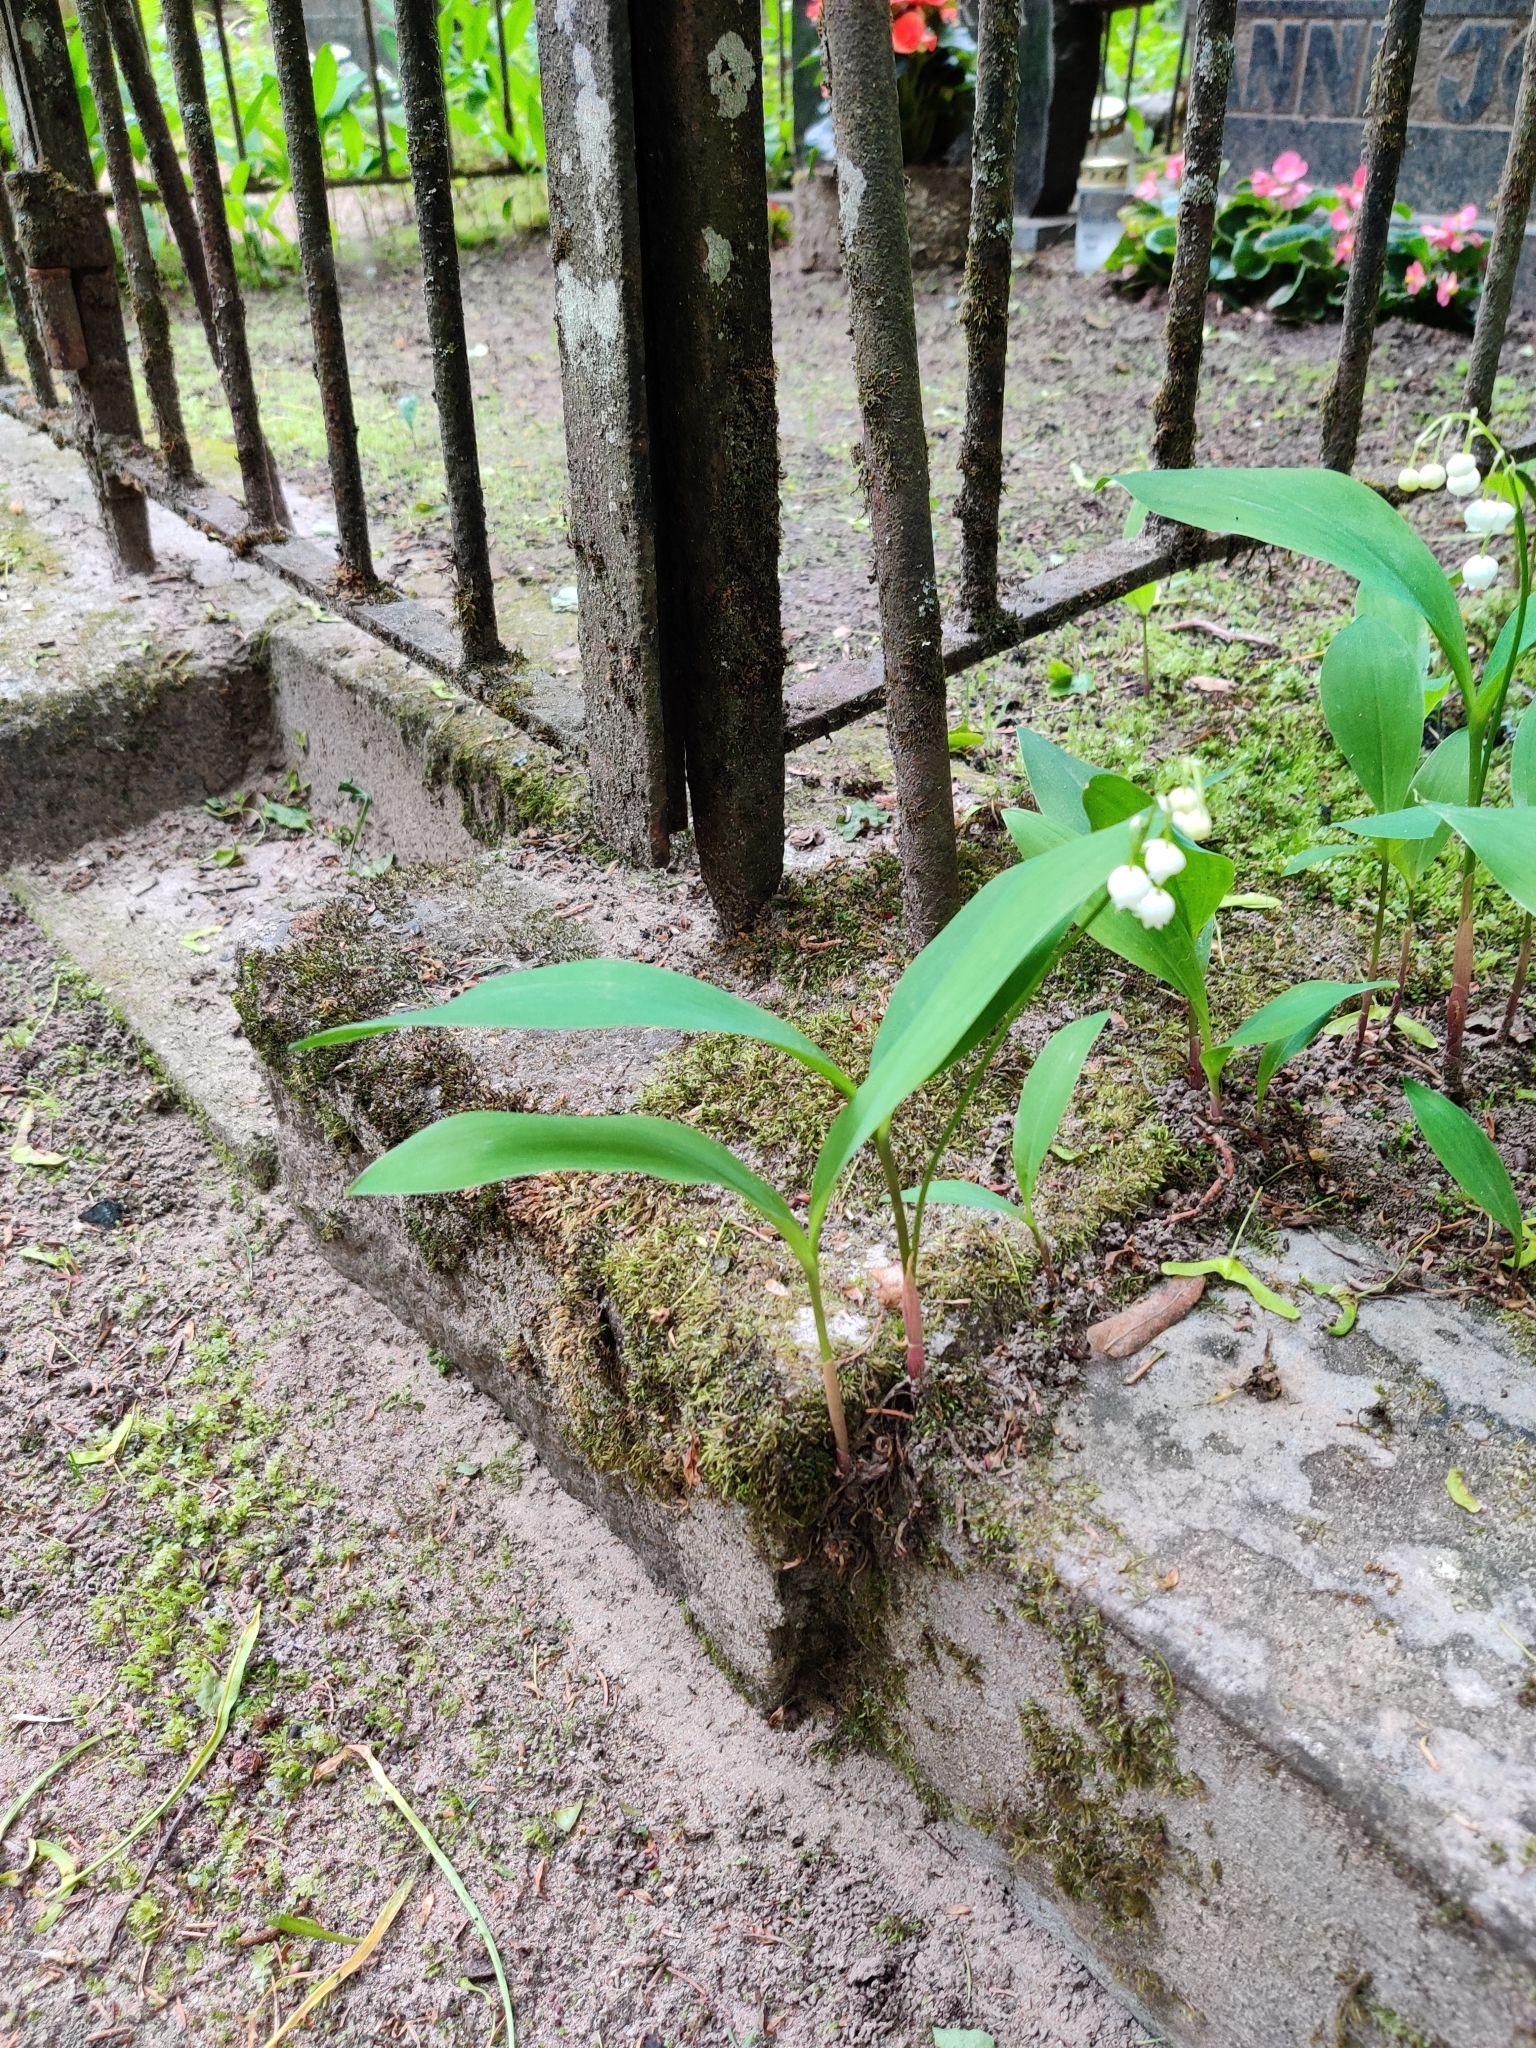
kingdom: Plantae
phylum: Tracheophyta
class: Liliopsida
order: Asparagales
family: Asparagaceae
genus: Convallaria
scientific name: Convallaria majalis
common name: Lily-of-the-valley
